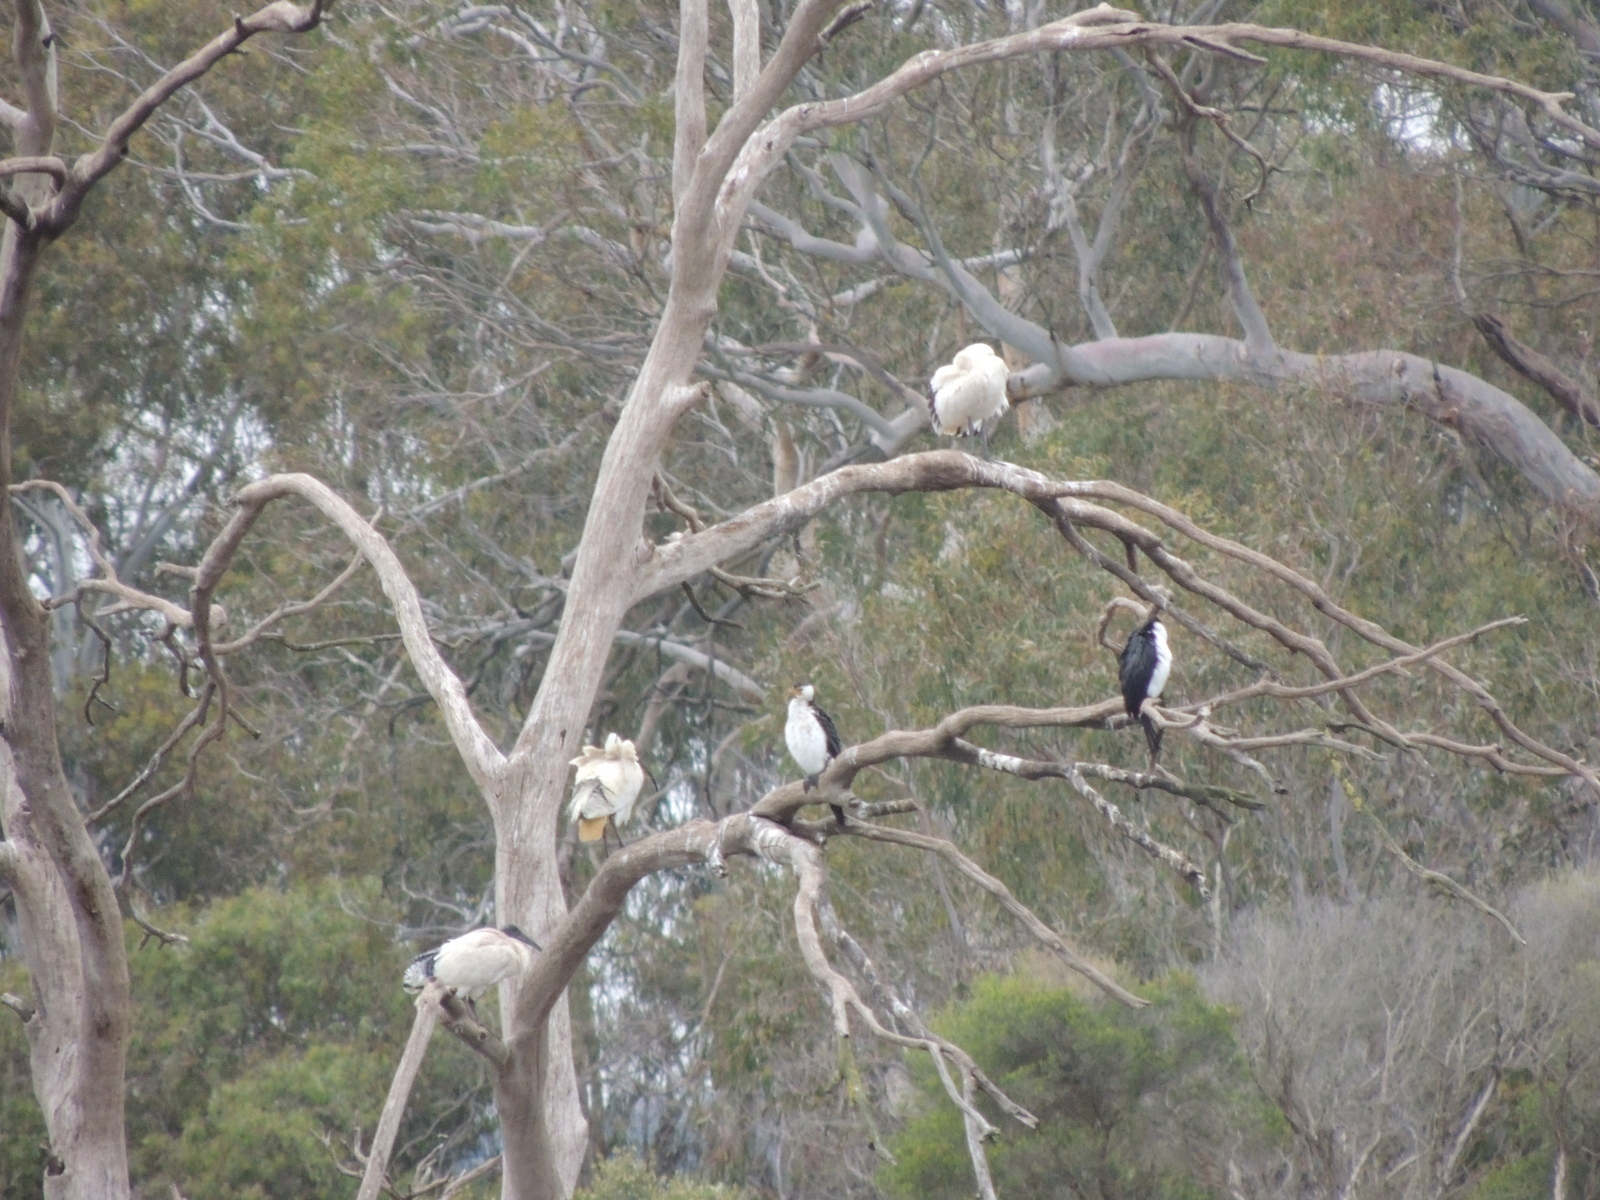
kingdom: Animalia
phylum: Chordata
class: Aves
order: Suliformes
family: Phalacrocoracidae
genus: Microcarbo
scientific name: Microcarbo melanoleucos
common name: Little pied cormorant
